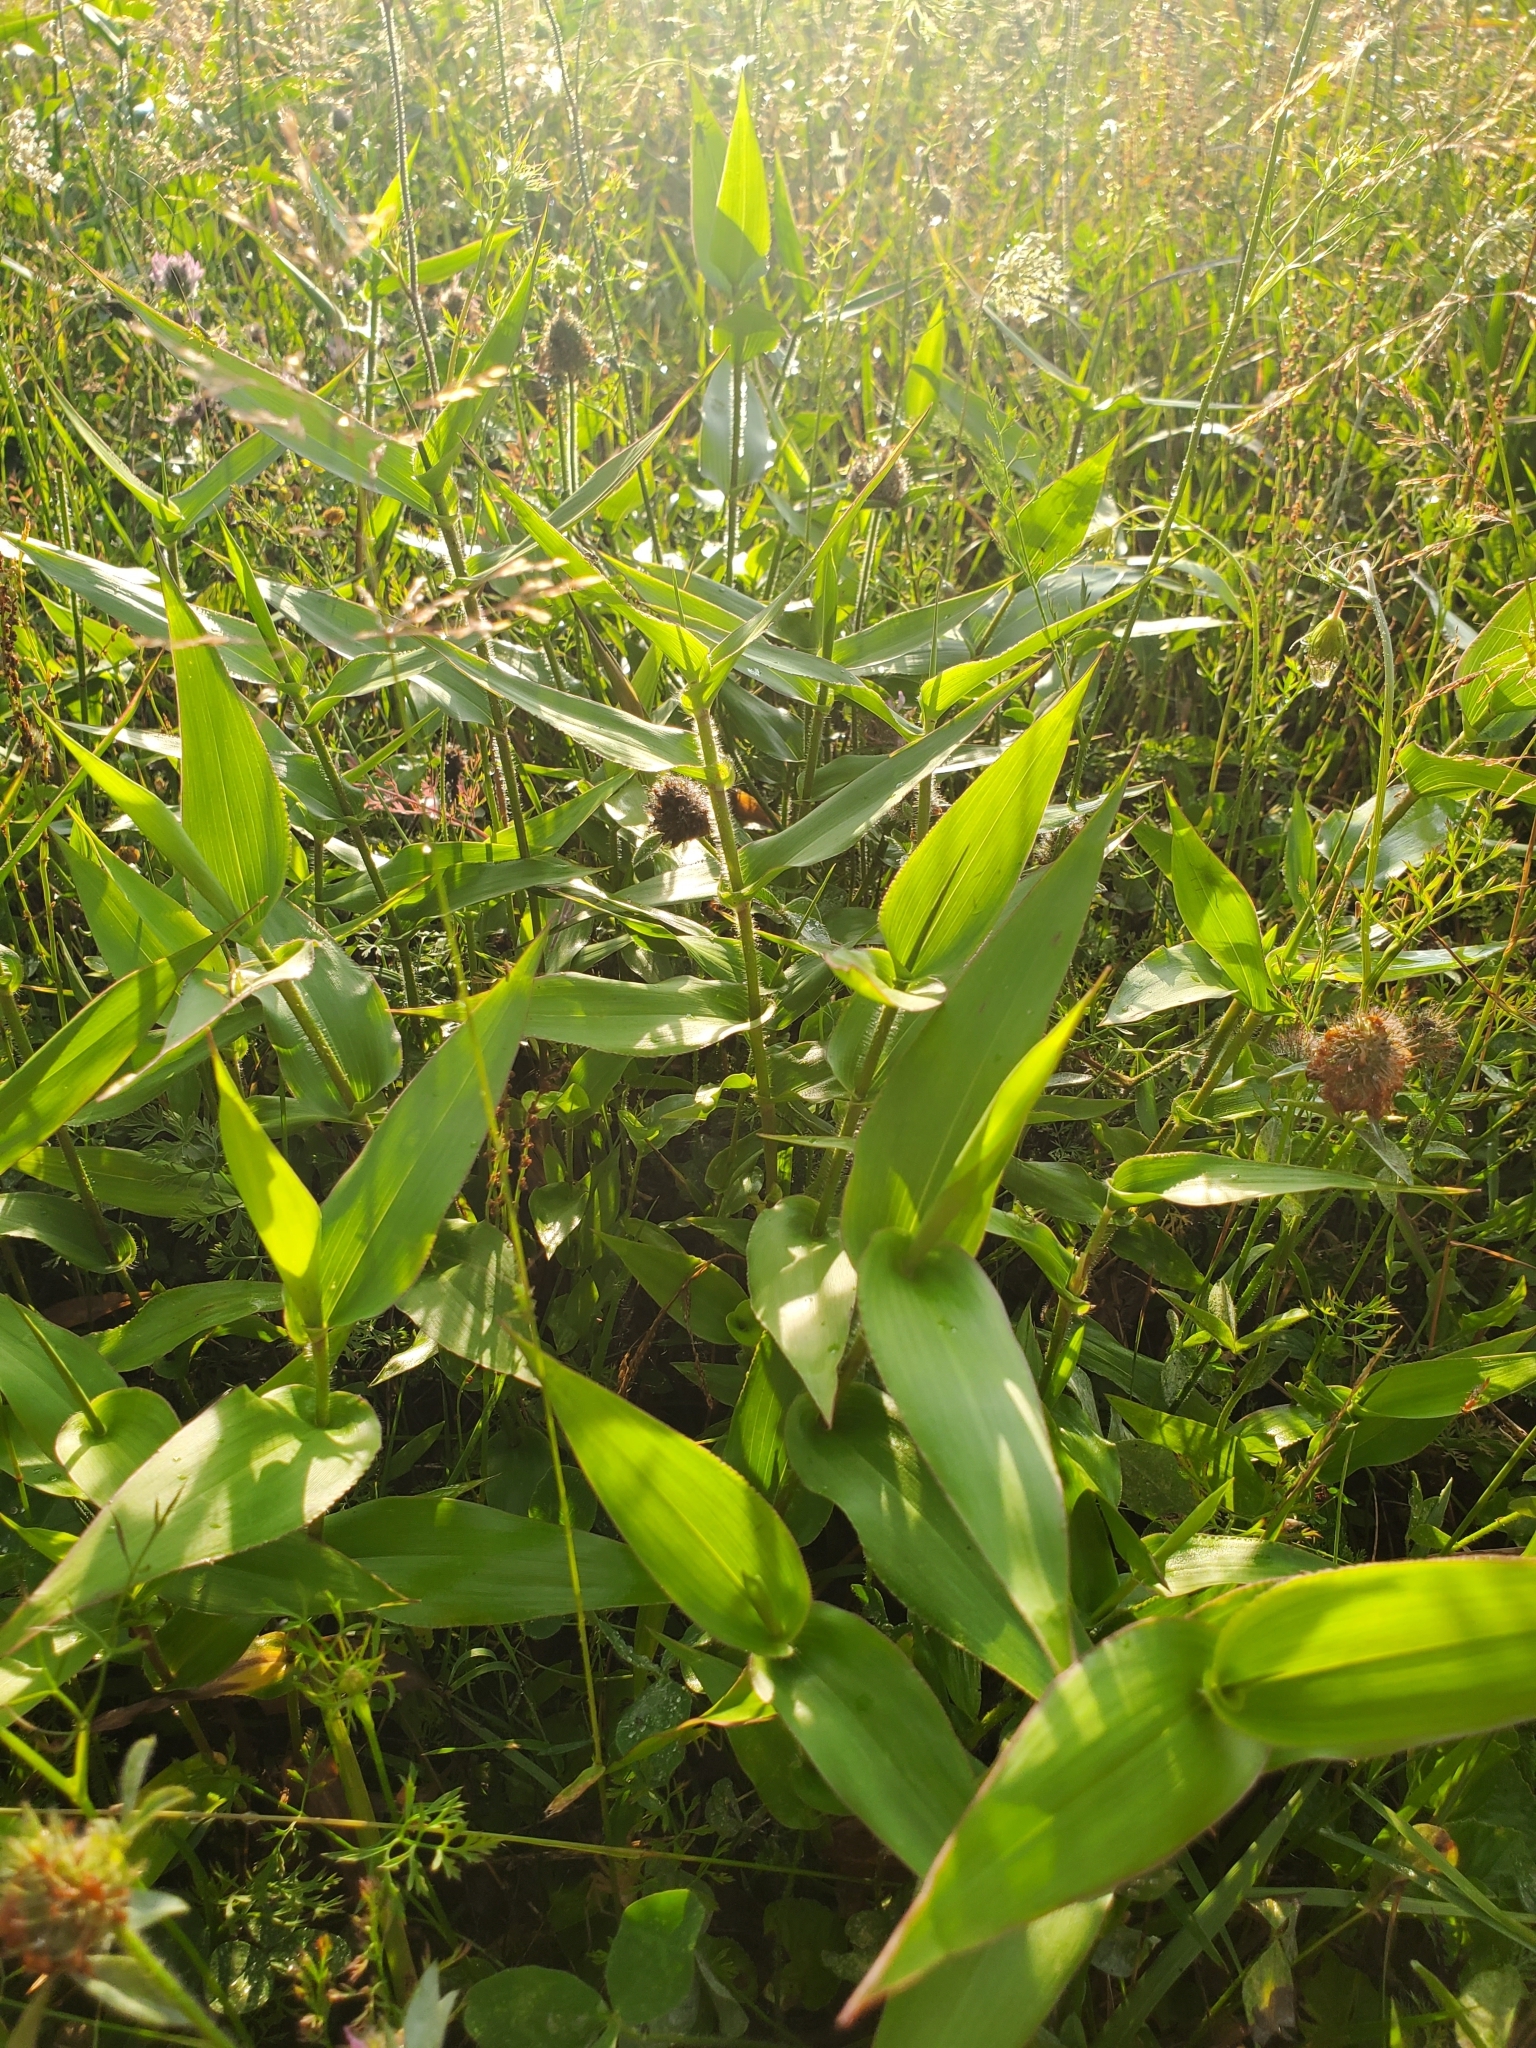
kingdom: Plantae
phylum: Tracheophyta
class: Liliopsida
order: Poales
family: Poaceae
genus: Dichanthelium
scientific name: Dichanthelium clandestinum
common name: Deer-tongue grass
